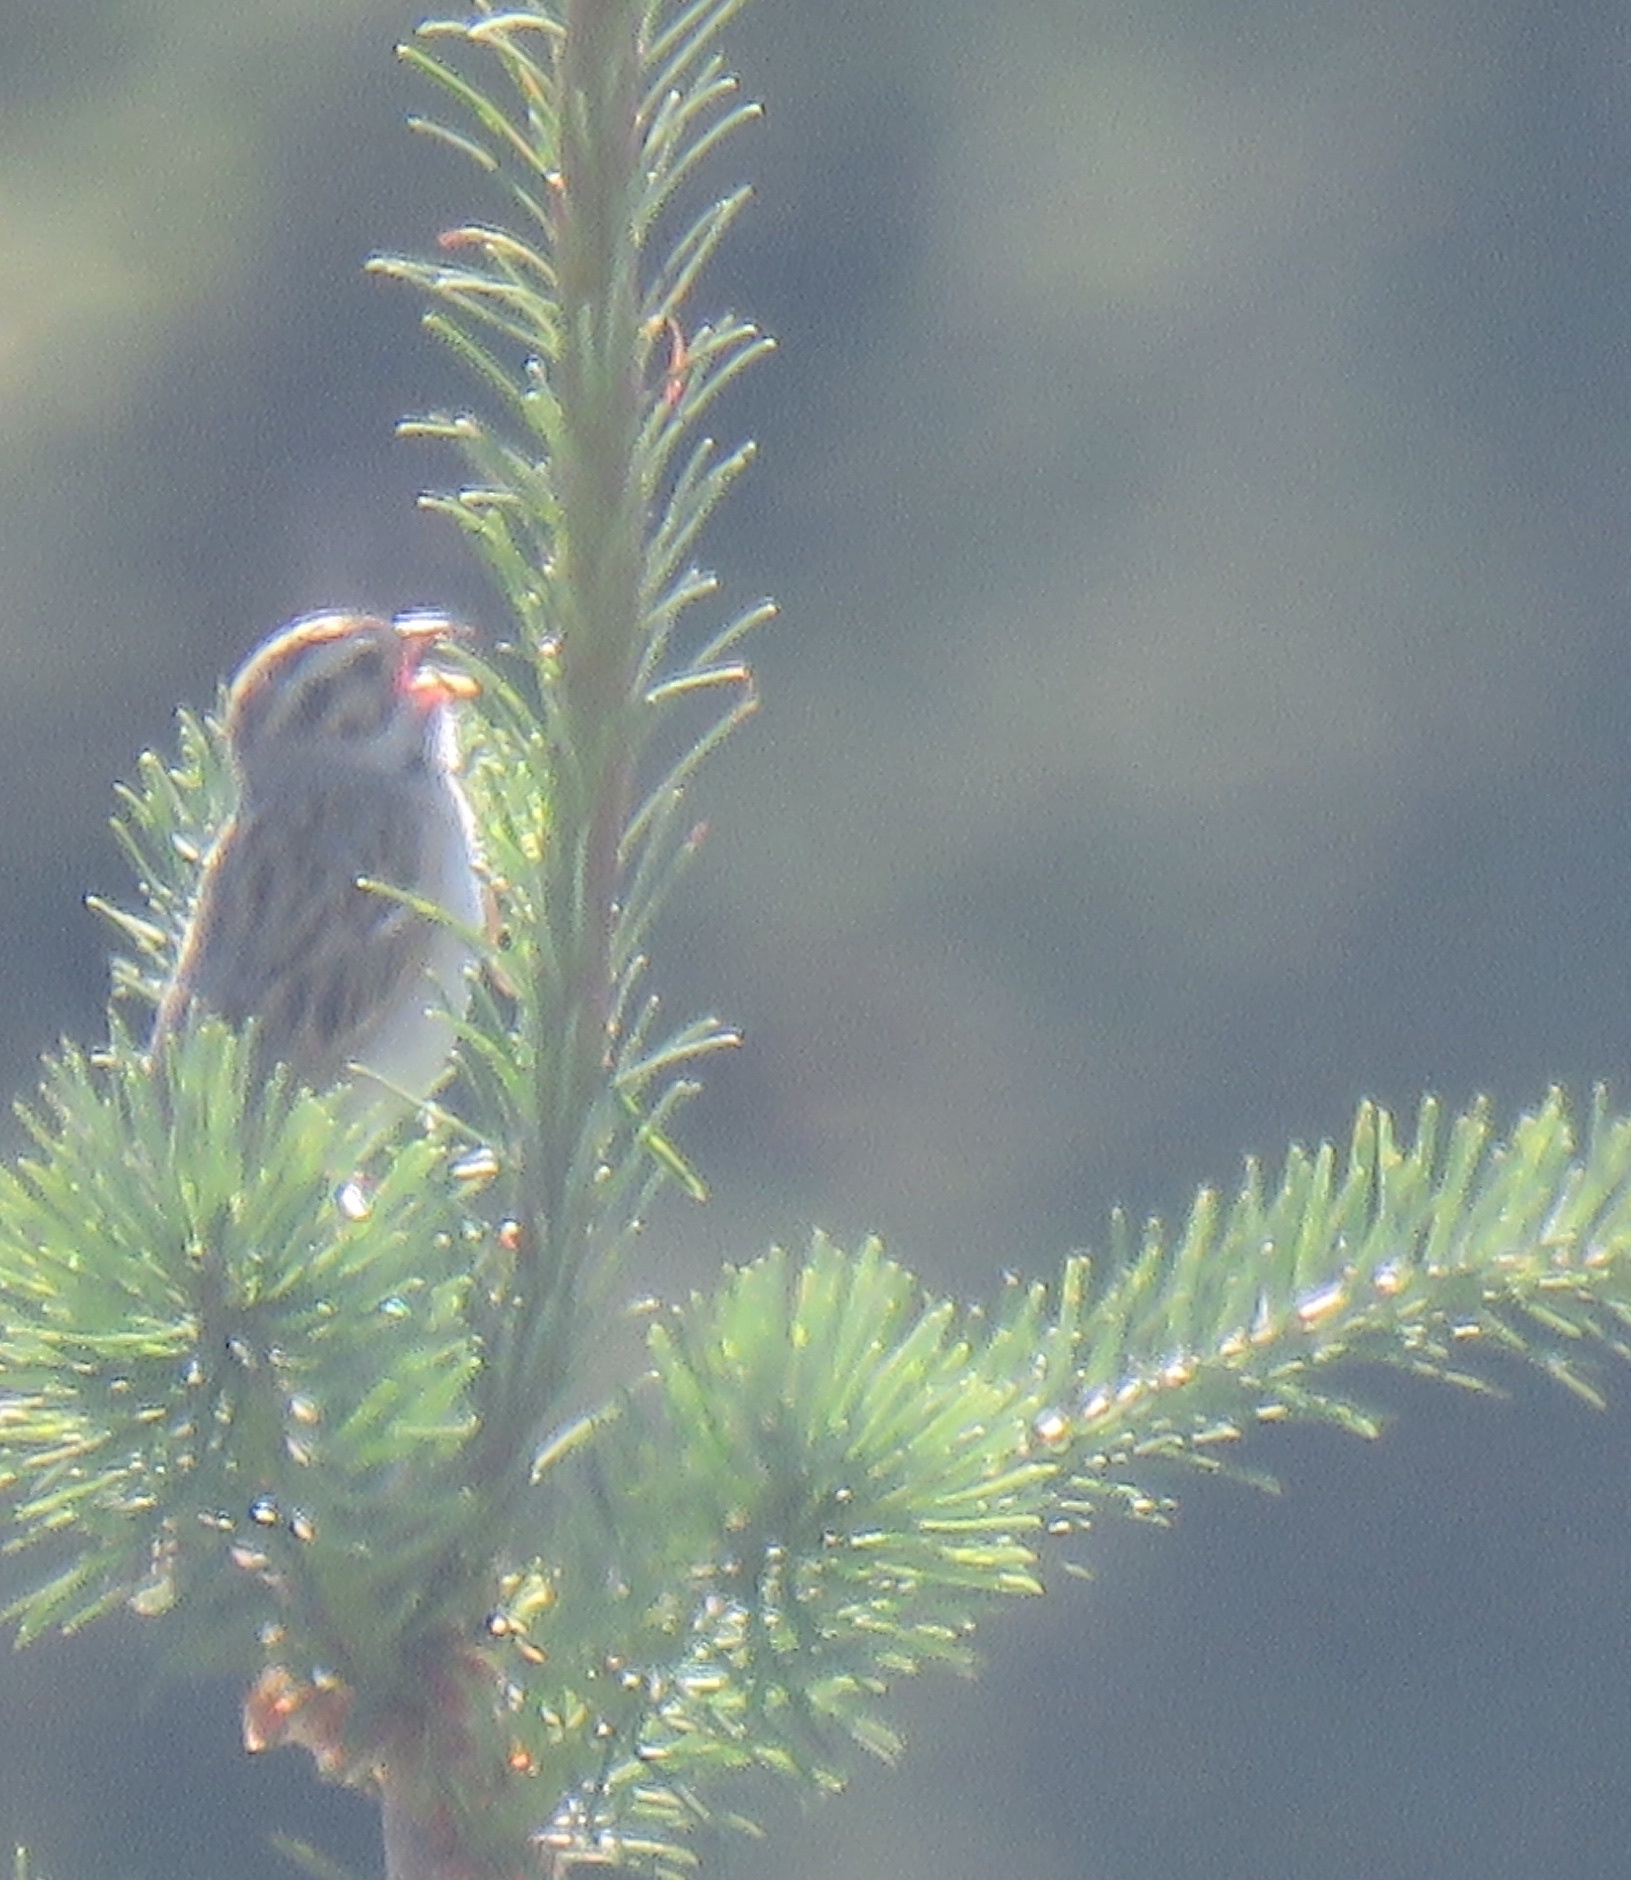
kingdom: Animalia
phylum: Chordata
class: Aves
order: Passeriformes
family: Passerellidae
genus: Spizella
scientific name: Spizella pallida
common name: Clay-colored sparrow
